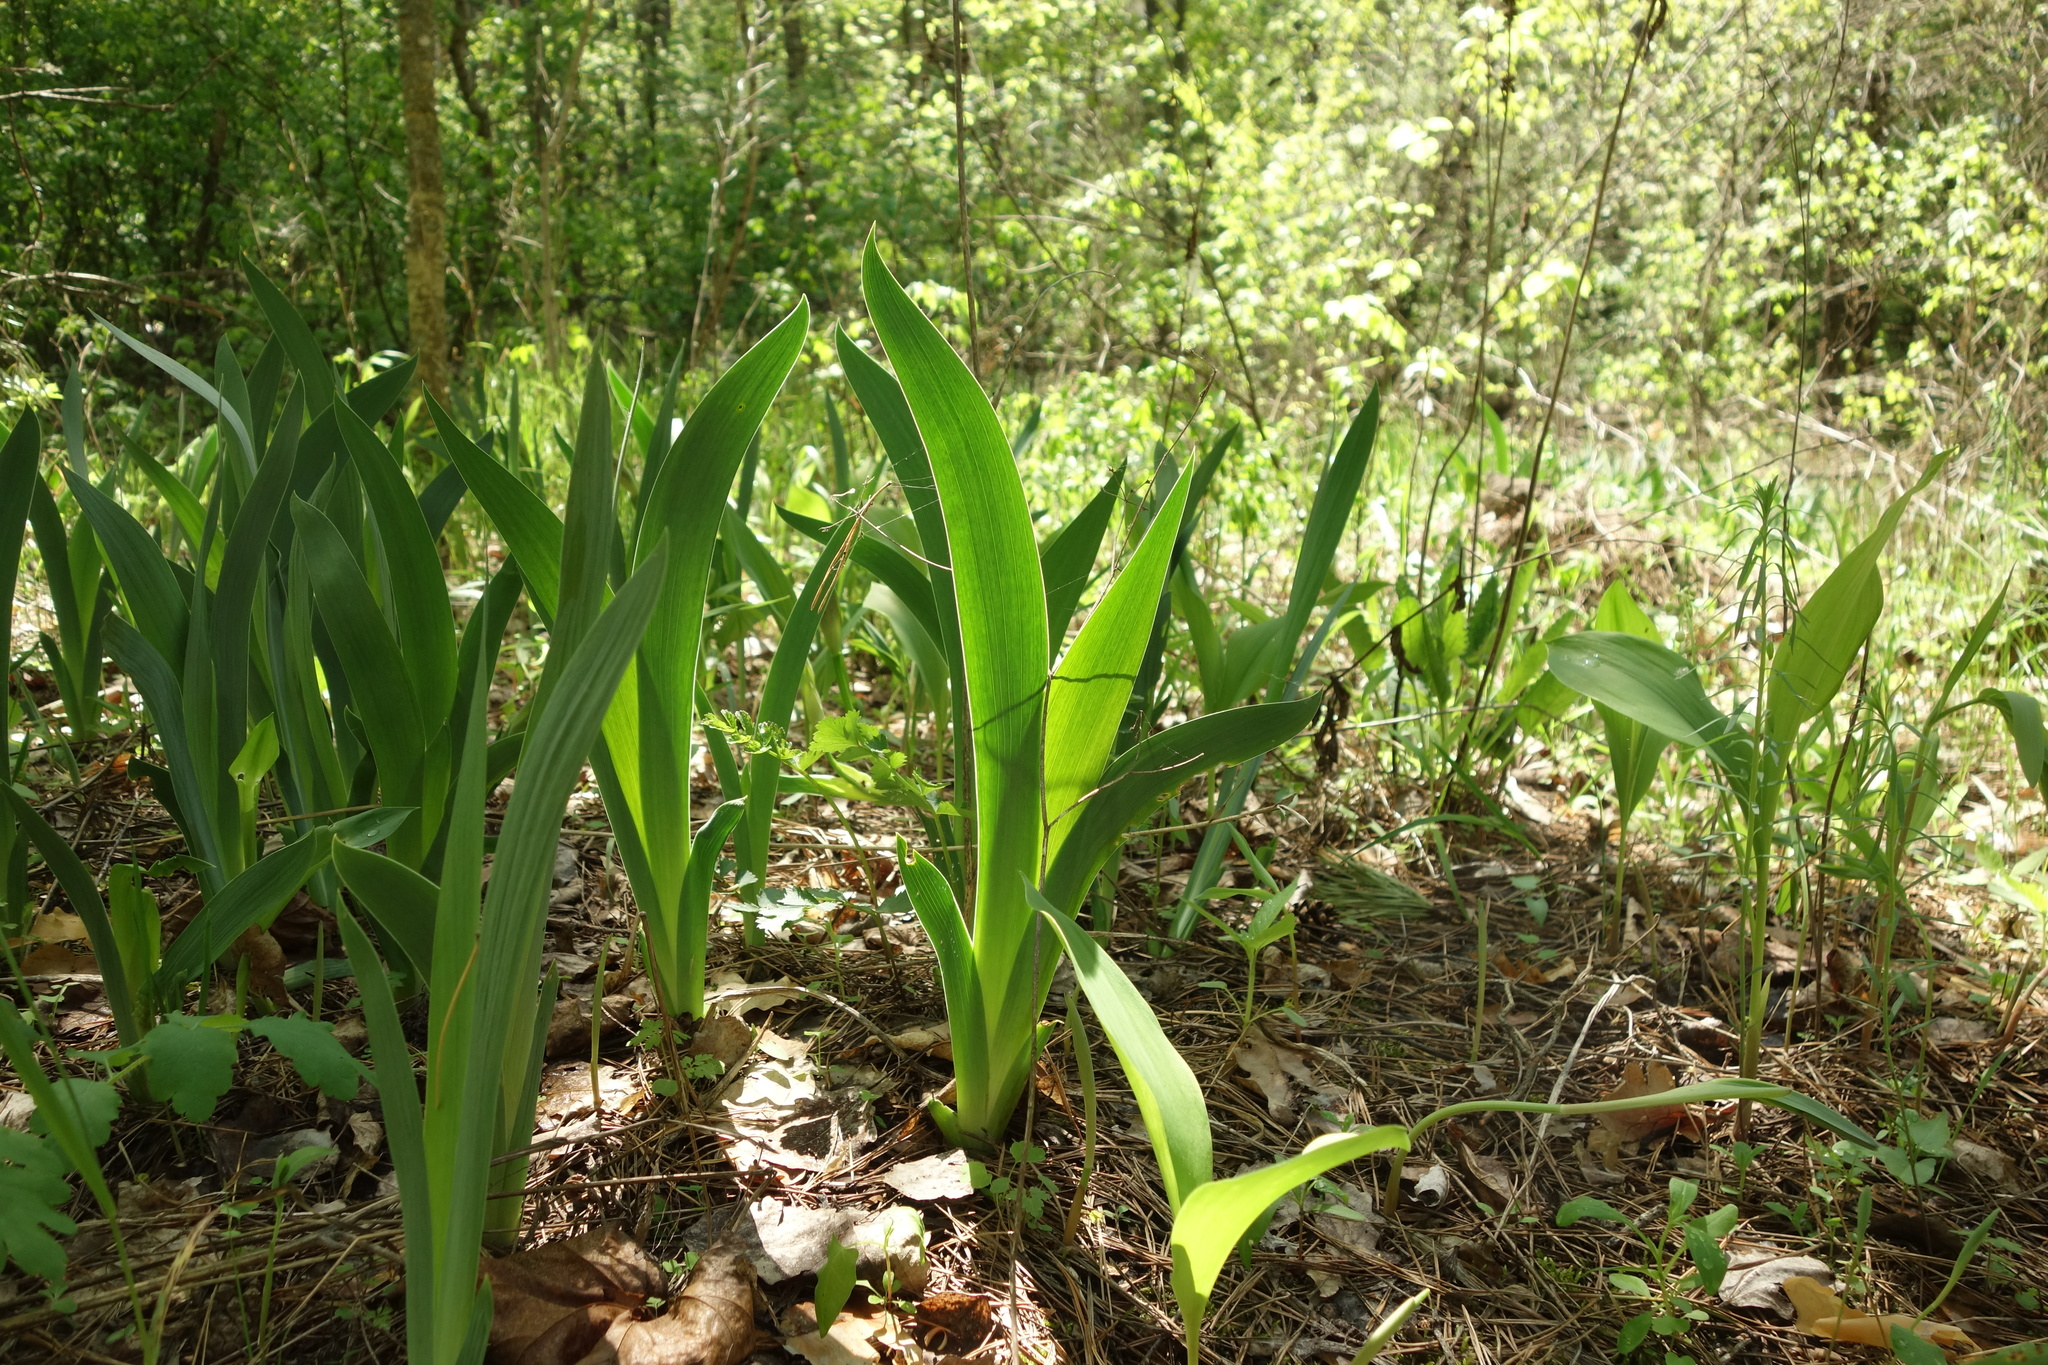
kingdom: Plantae
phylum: Tracheophyta
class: Liliopsida
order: Asparagales
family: Iridaceae
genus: Iris
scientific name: Iris aphylla
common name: Stool iris
